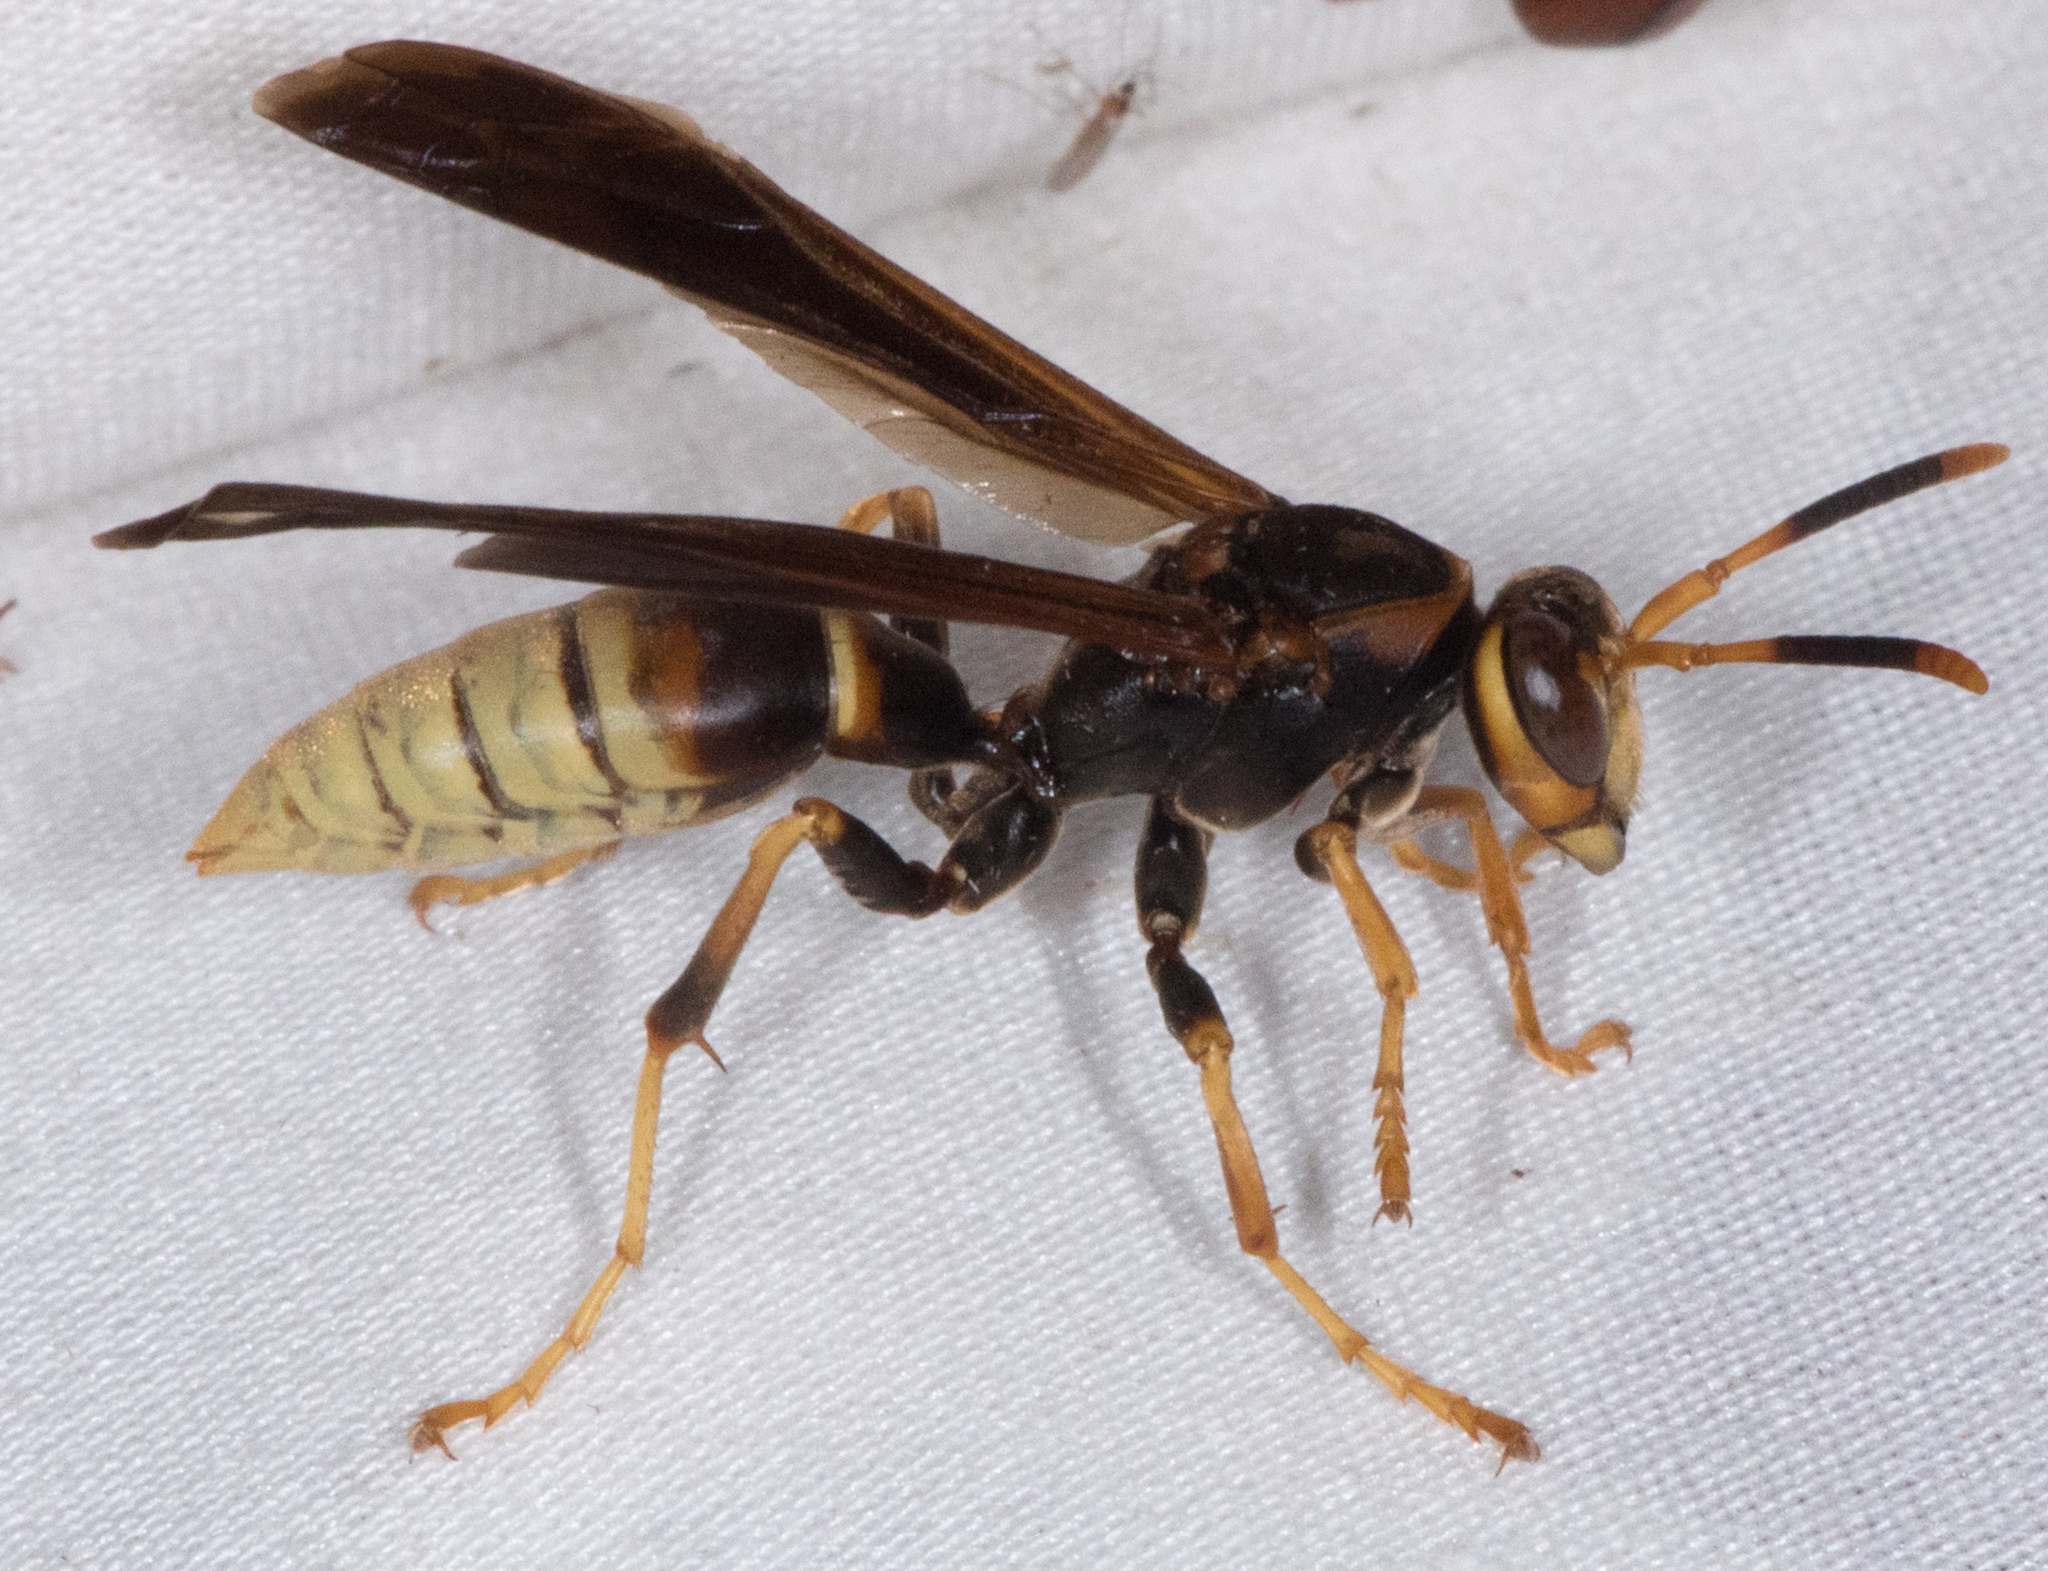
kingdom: Animalia
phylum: Arthropoda
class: Insecta
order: Hymenoptera
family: Eumenidae
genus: Polistes
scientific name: Polistes comanchus
